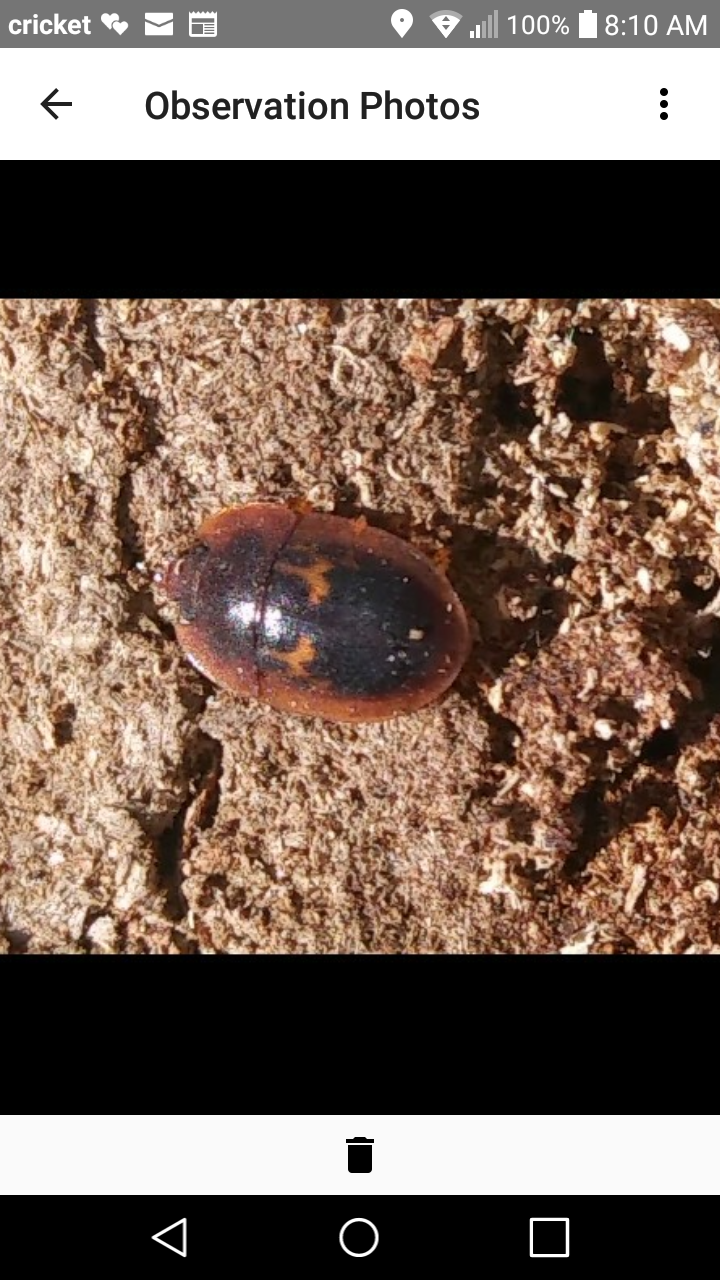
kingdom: Animalia
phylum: Arthropoda
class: Insecta
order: Coleoptera
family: Nitidulidae
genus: Prometopia
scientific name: Prometopia sexmaculata
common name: Six-spotted sap-feeding beetle
